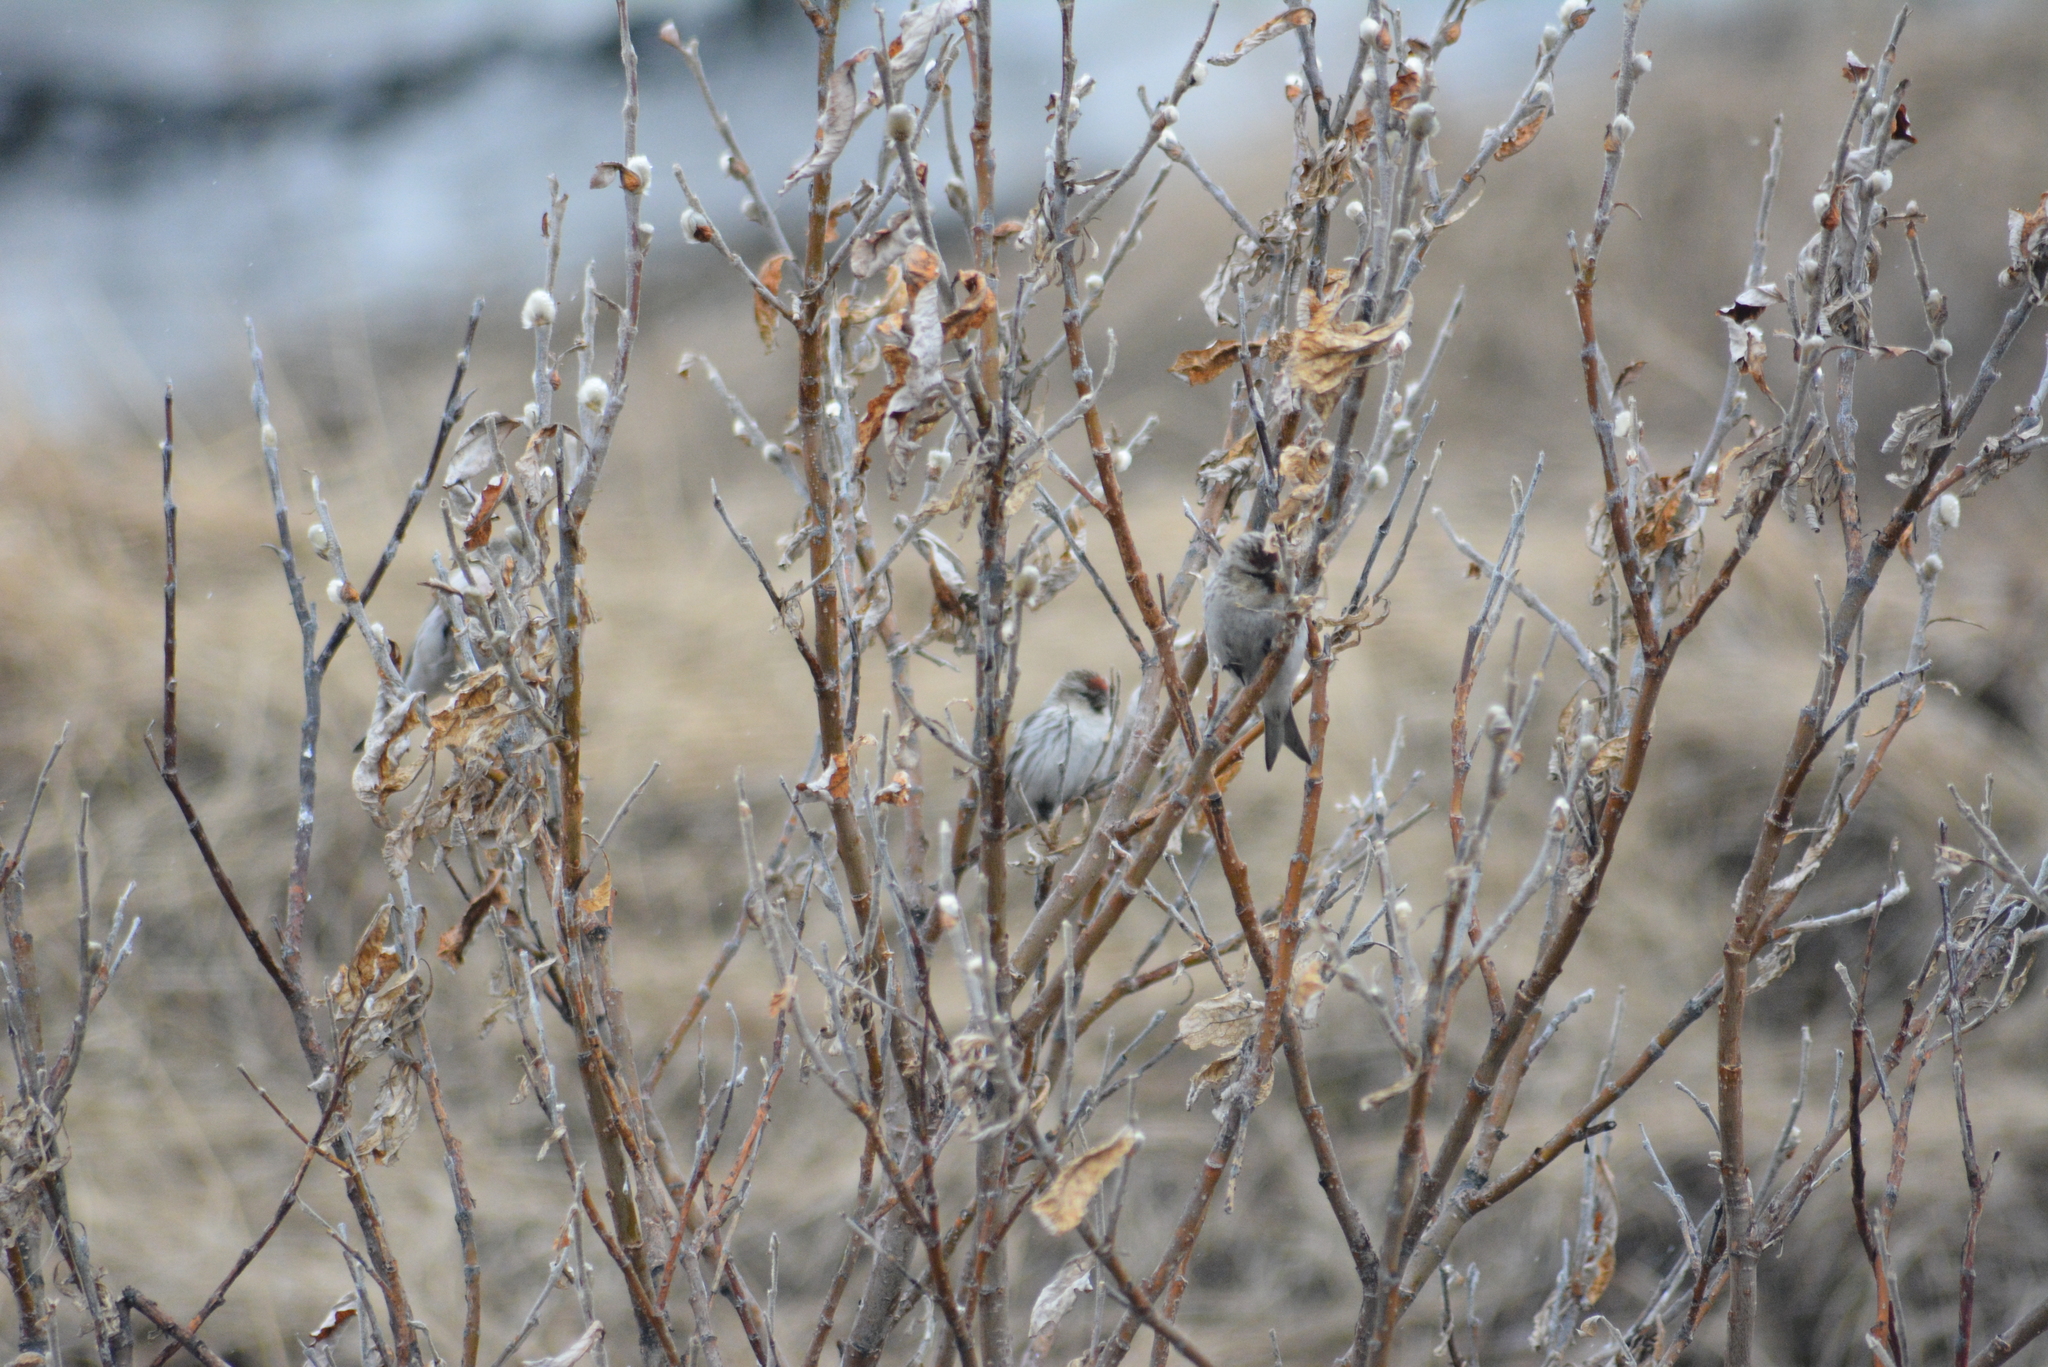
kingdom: Animalia
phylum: Chordata
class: Aves
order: Passeriformes
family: Fringillidae
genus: Acanthis
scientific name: Acanthis hornemanni
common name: Arctic redpoll
